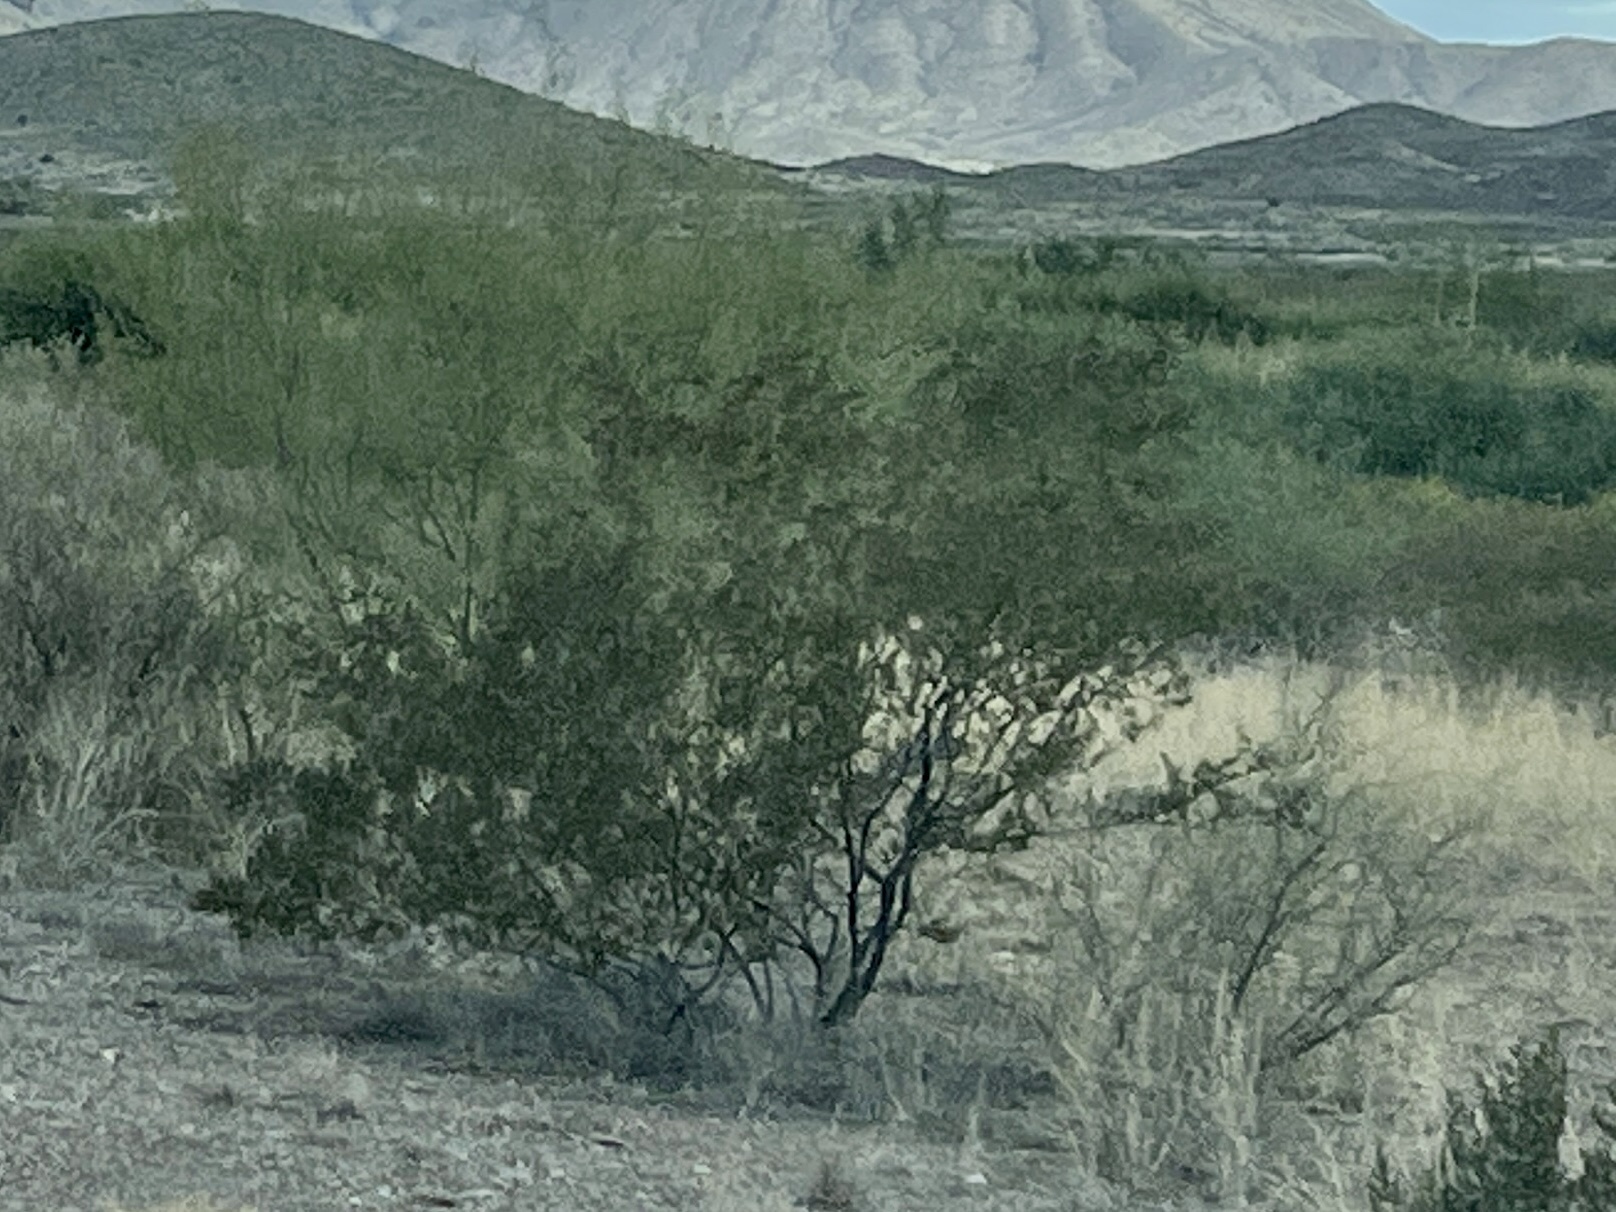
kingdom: Plantae
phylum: Tracheophyta
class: Magnoliopsida
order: Zygophyllales
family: Zygophyllaceae
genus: Larrea
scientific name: Larrea tridentata
